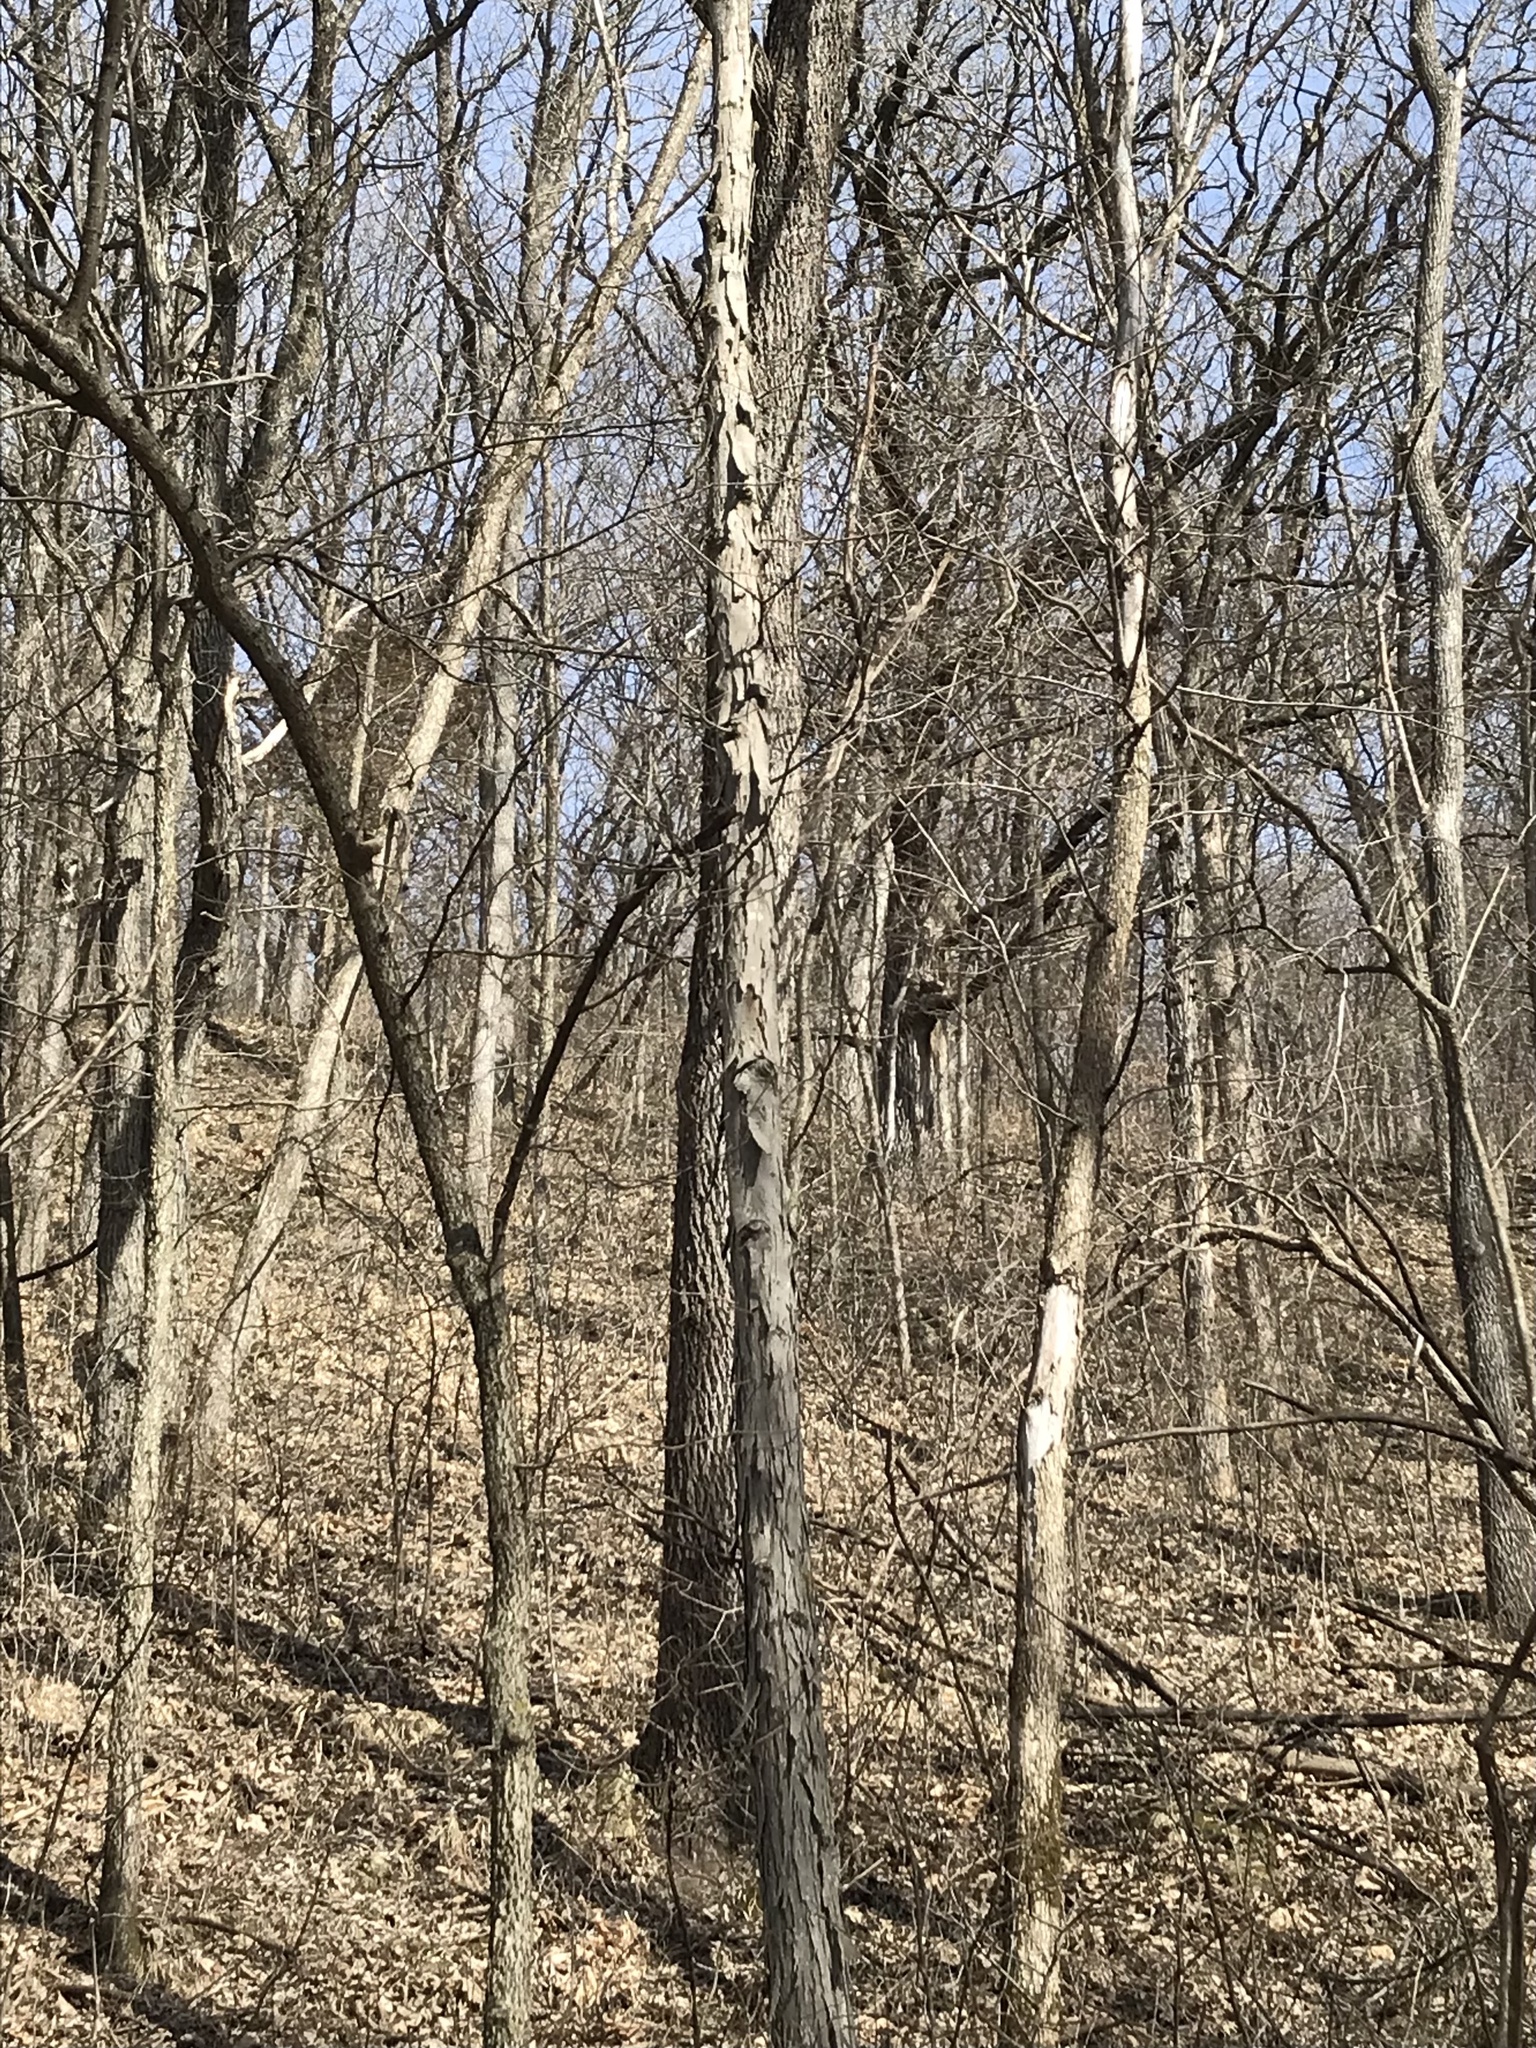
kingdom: Plantae
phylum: Tracheophyta
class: Magnoliopsida
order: Fagales
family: Juglandaceae
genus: Carya
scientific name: Carya ovata
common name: Shagbark hickory
